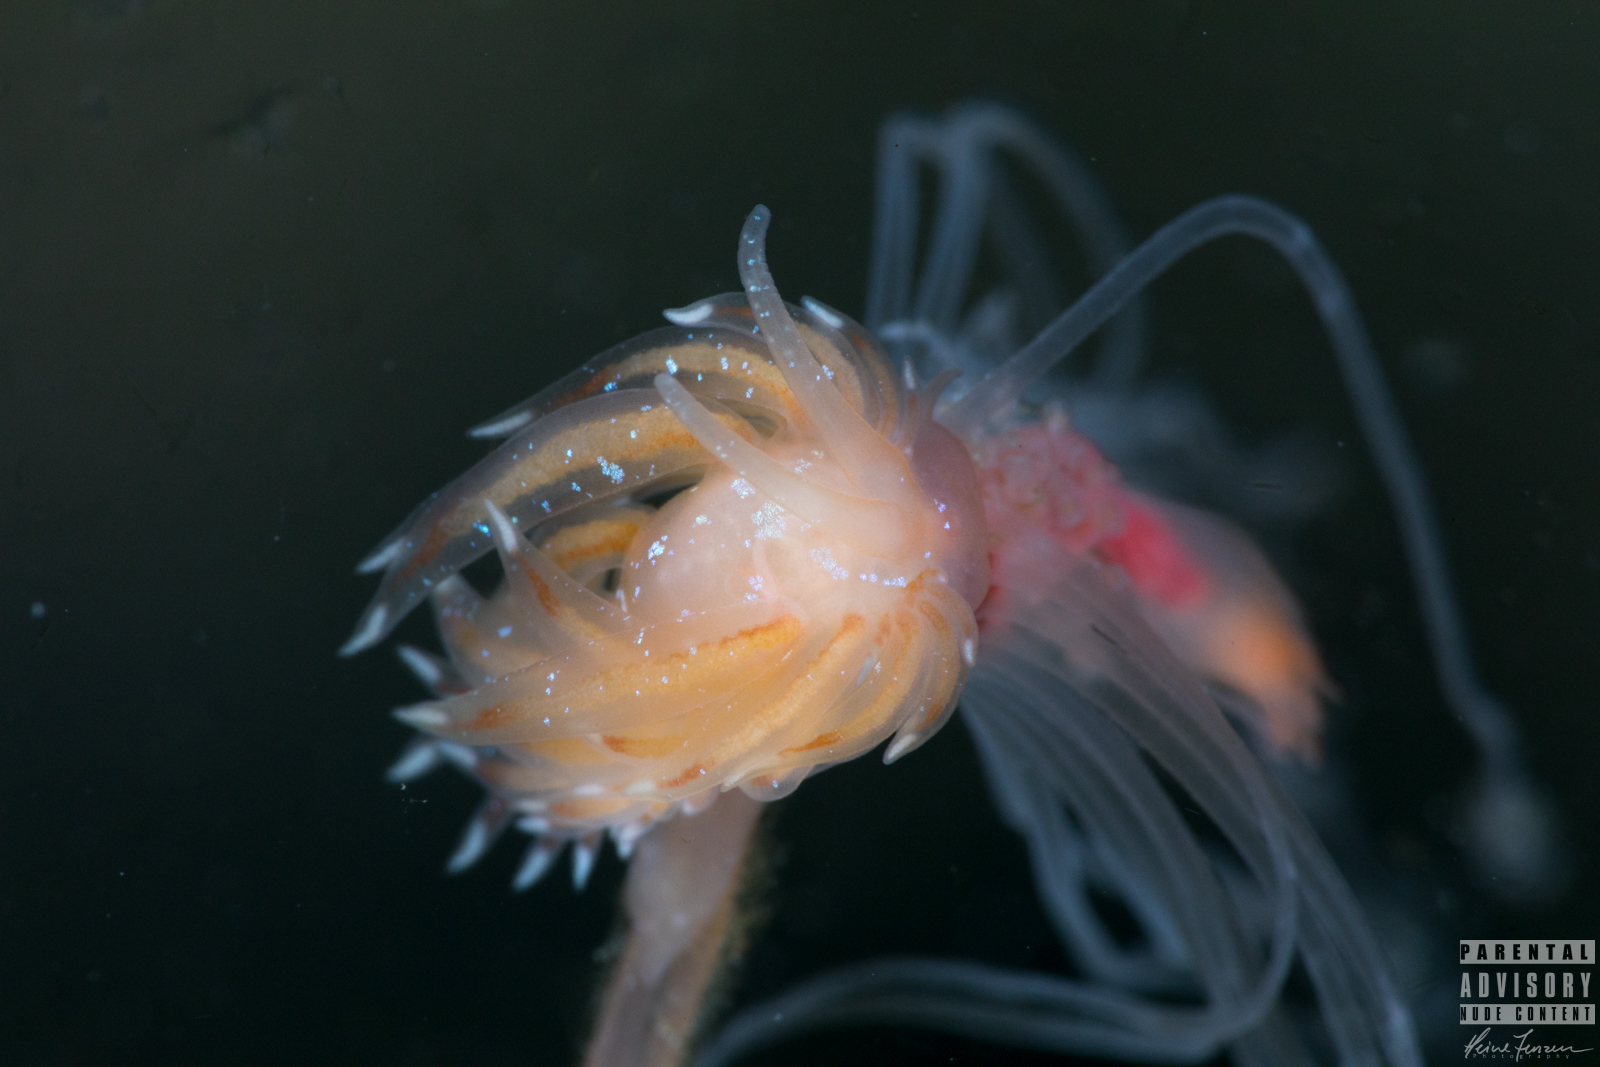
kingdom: Animalia
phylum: Mollusca
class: Gastropoda
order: Nudibranchia
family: Cumanotidae
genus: Cumanotus
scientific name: Cumanotus beaumonti
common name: Polyp aeolis
